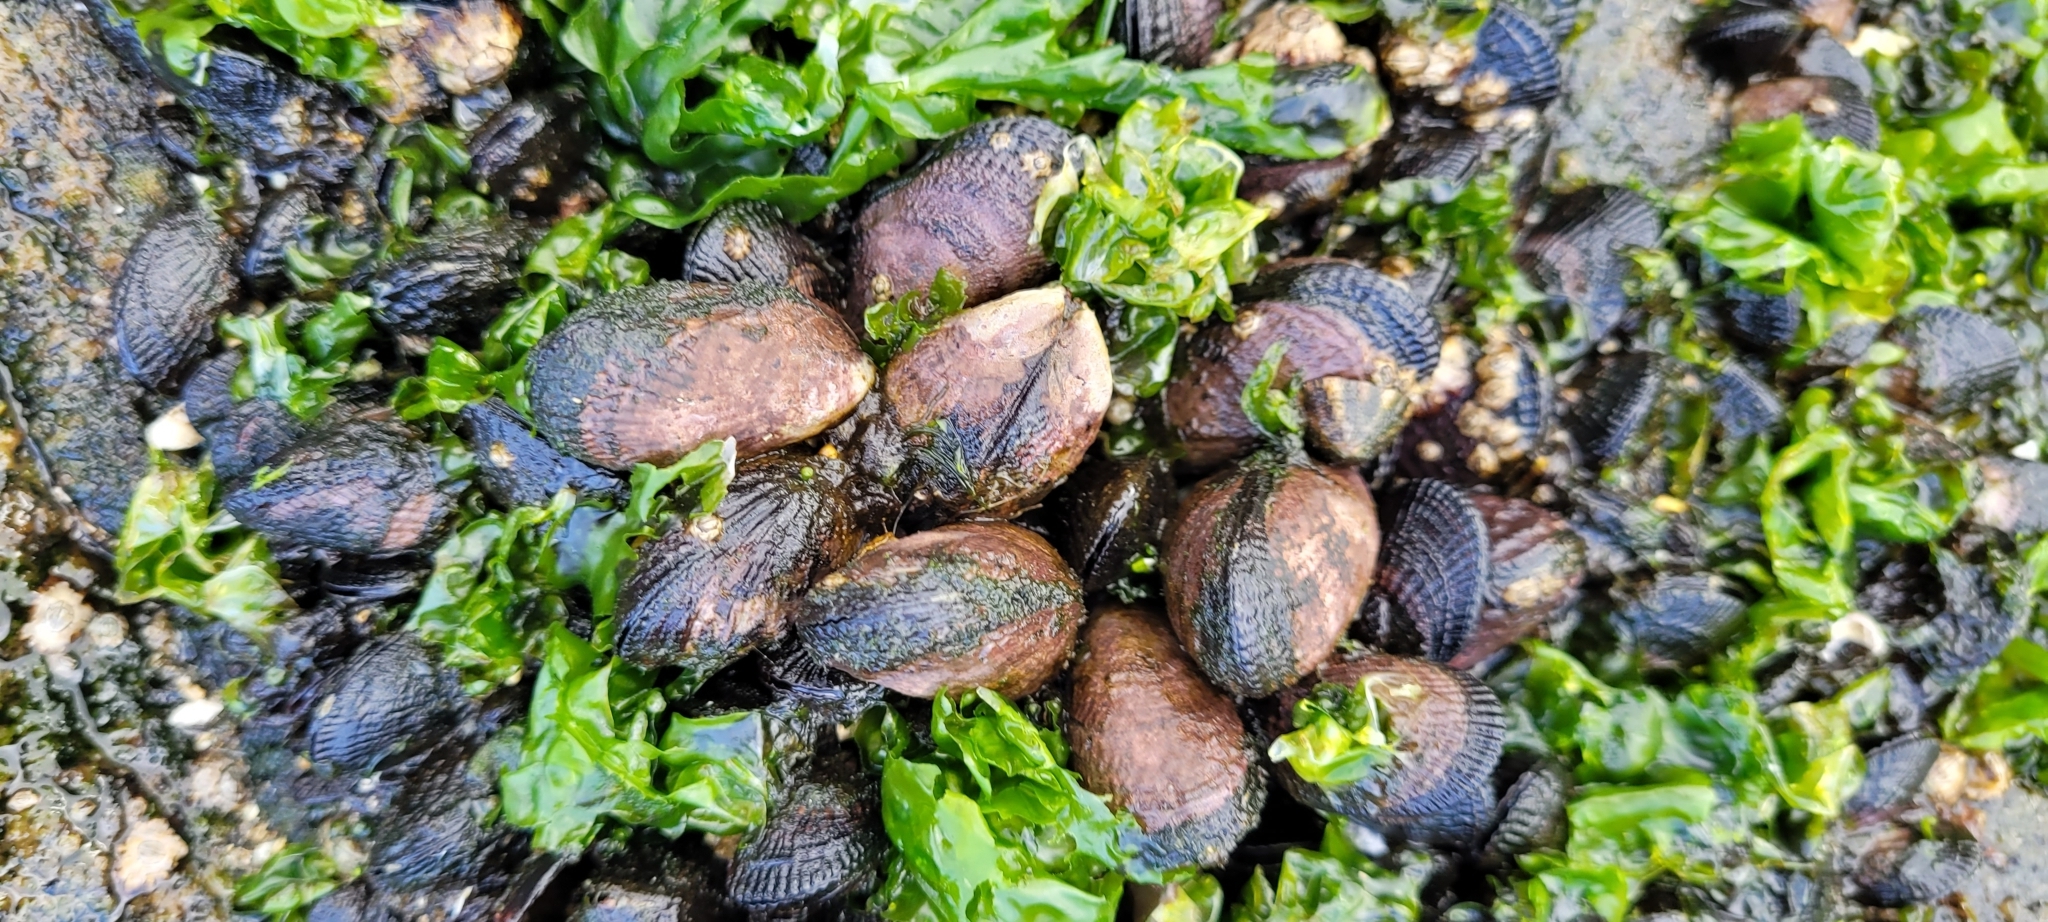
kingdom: Animalia
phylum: Mollusca
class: Bivalvia
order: Mytilida
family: Mytilidae
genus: Perumytilus
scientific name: Perumytilus purpuratus
